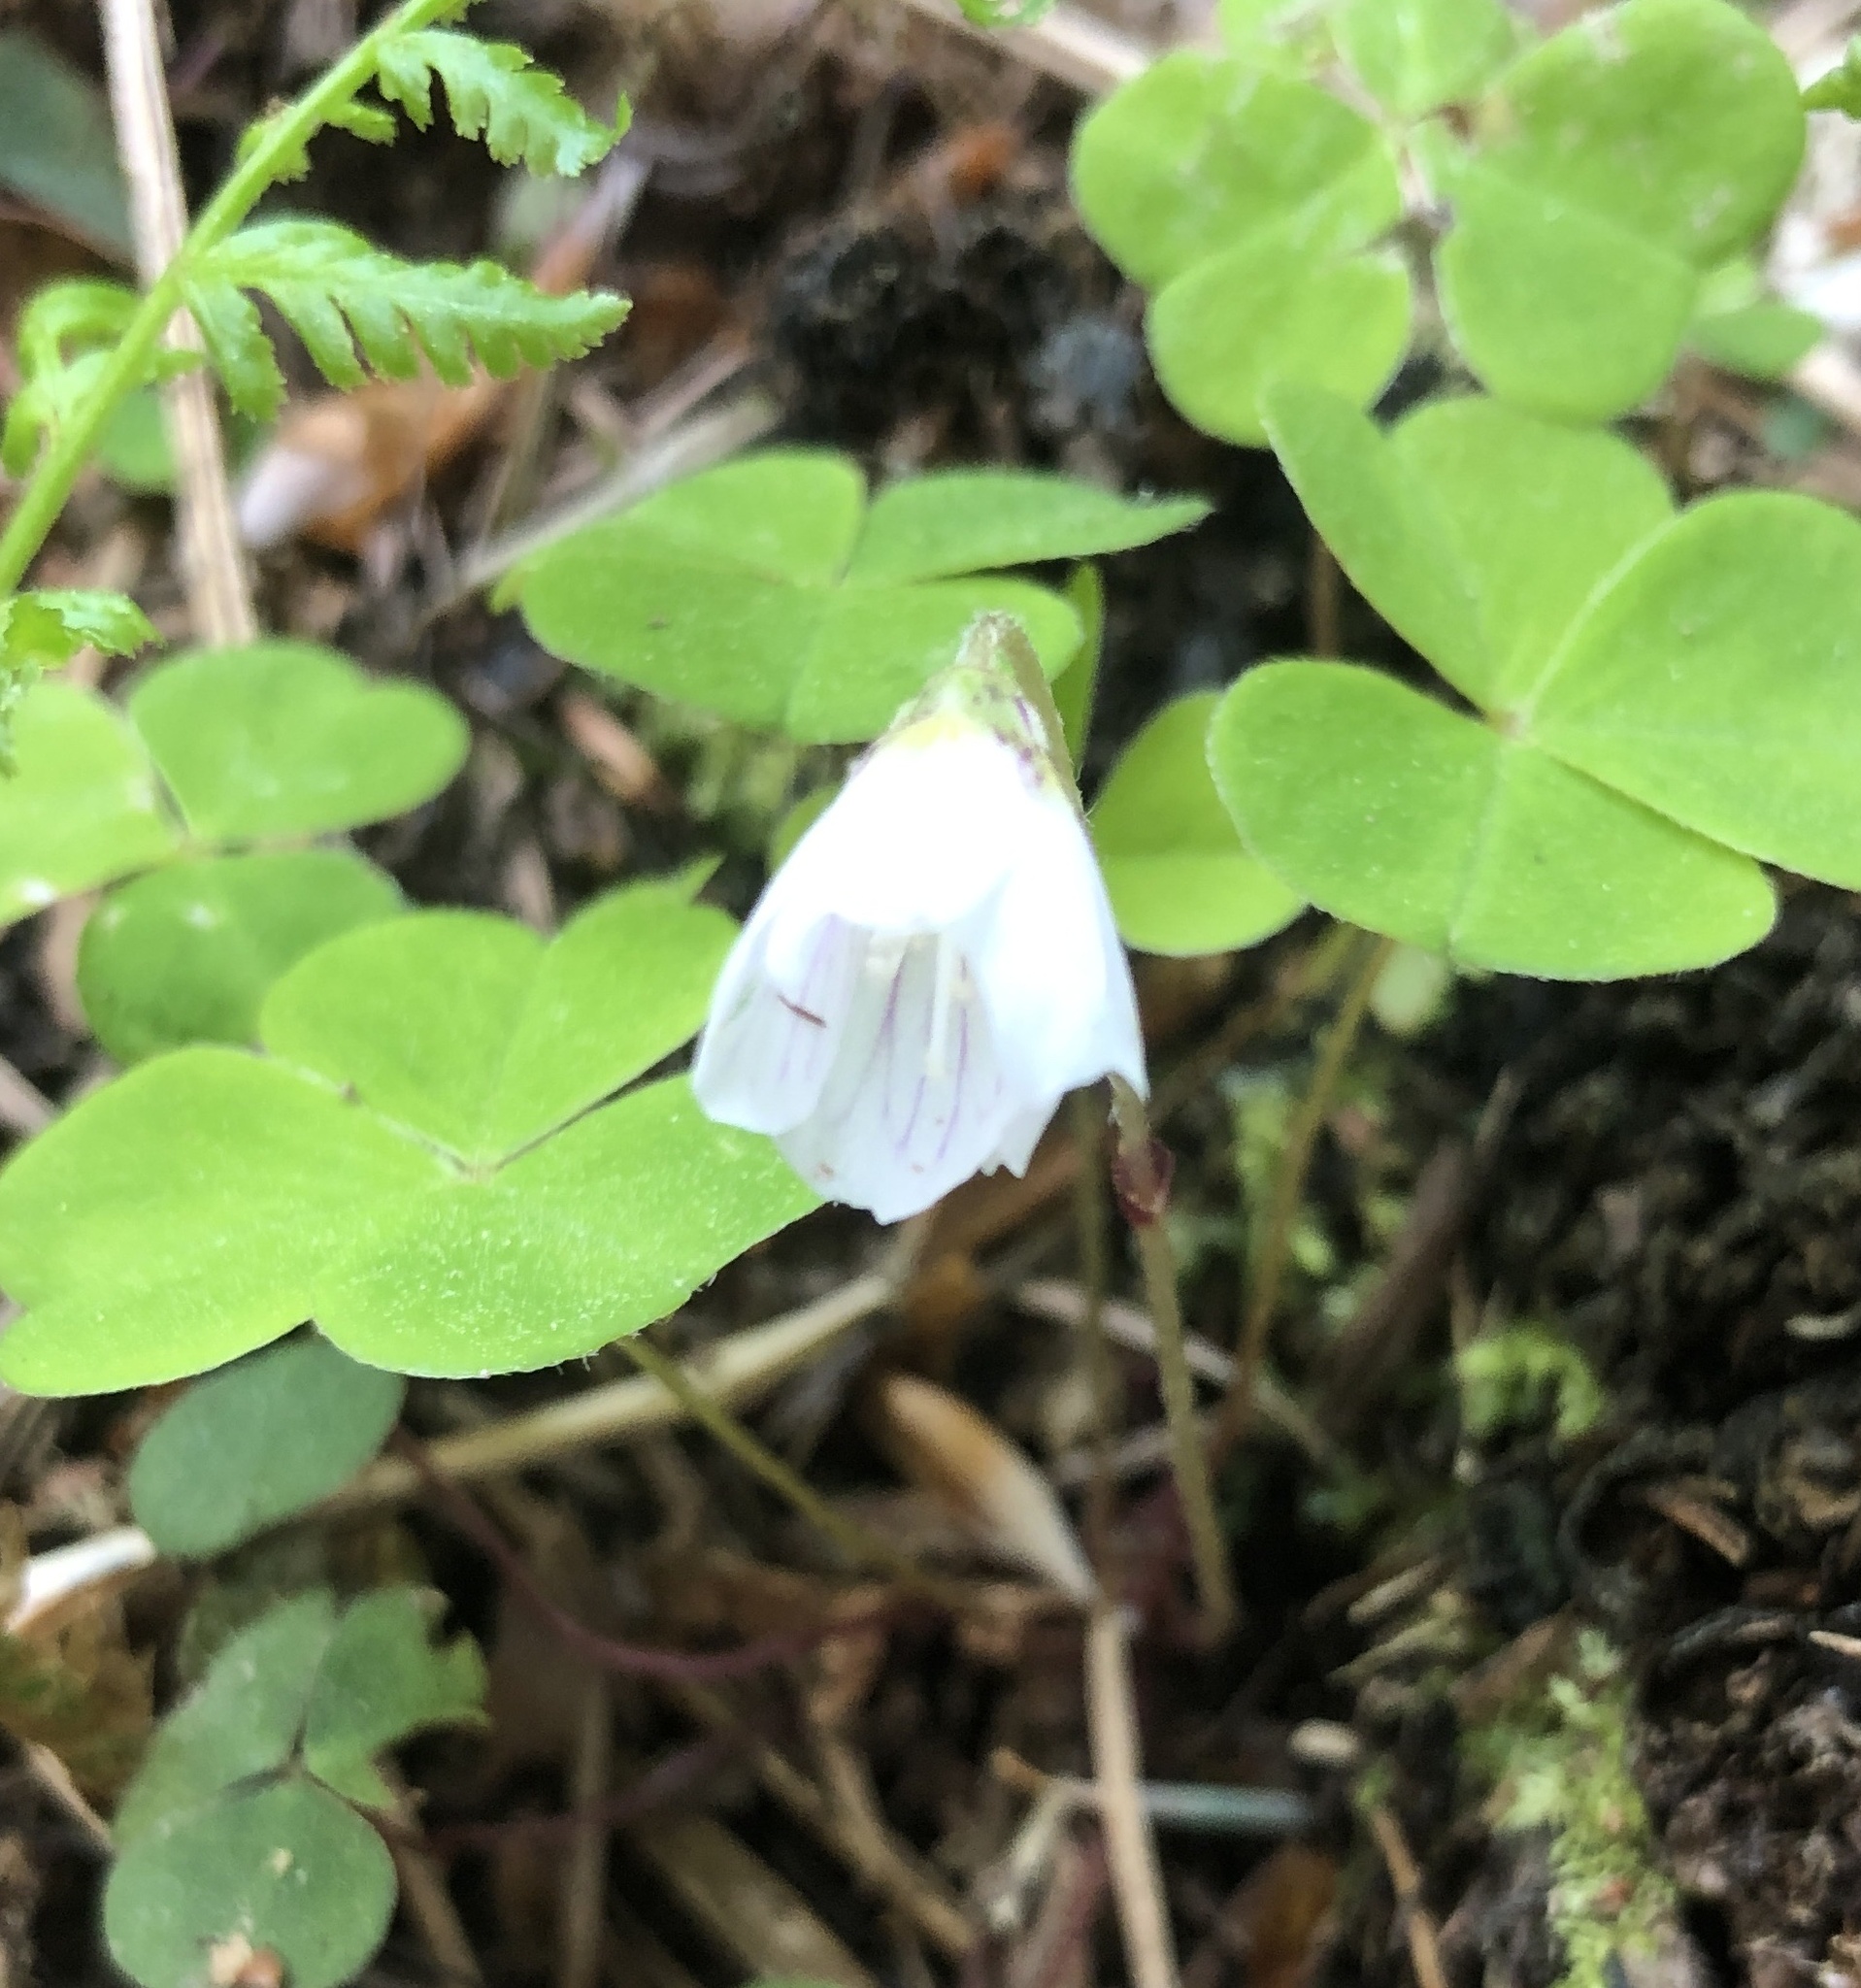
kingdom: Plantae
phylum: Tracheophyta
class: Magnoliopsida
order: Oxalidales
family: Oxalidaceae
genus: Oxalis
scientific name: Oxalis acetosella
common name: Wood-sorrel
